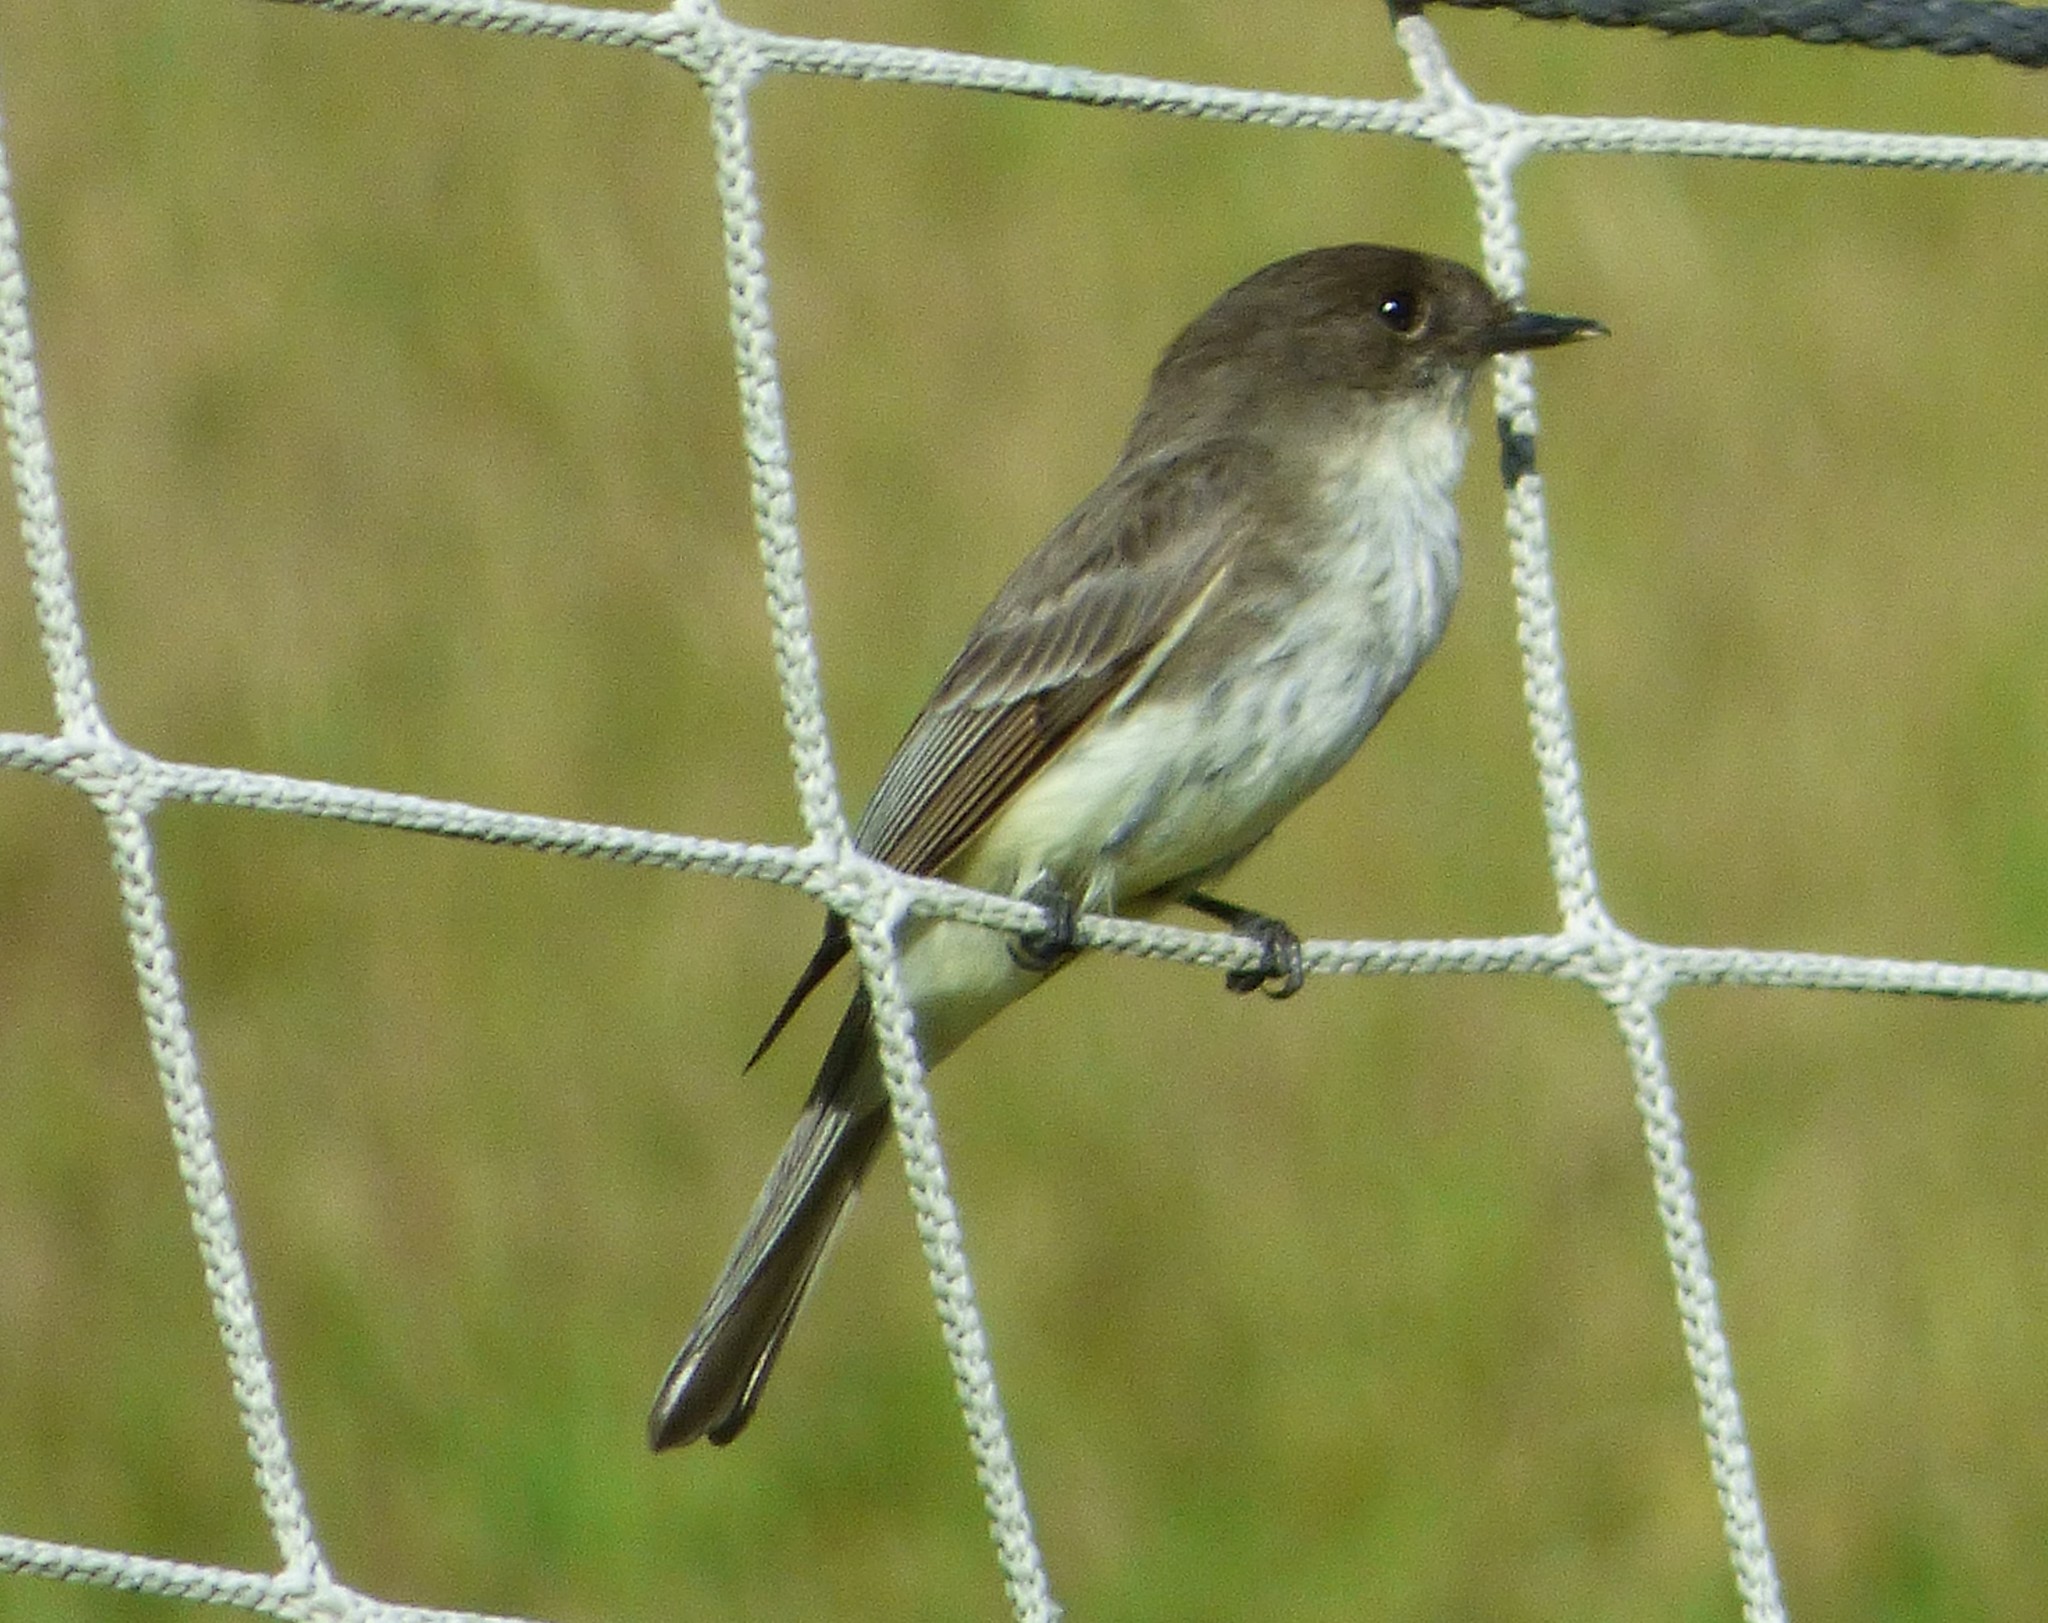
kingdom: Animalia
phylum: Chordata
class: Aves
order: Passeriformes
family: Tyrannidae
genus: Sayornis
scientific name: Sayornis phoebe
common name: Eastern phoebe
